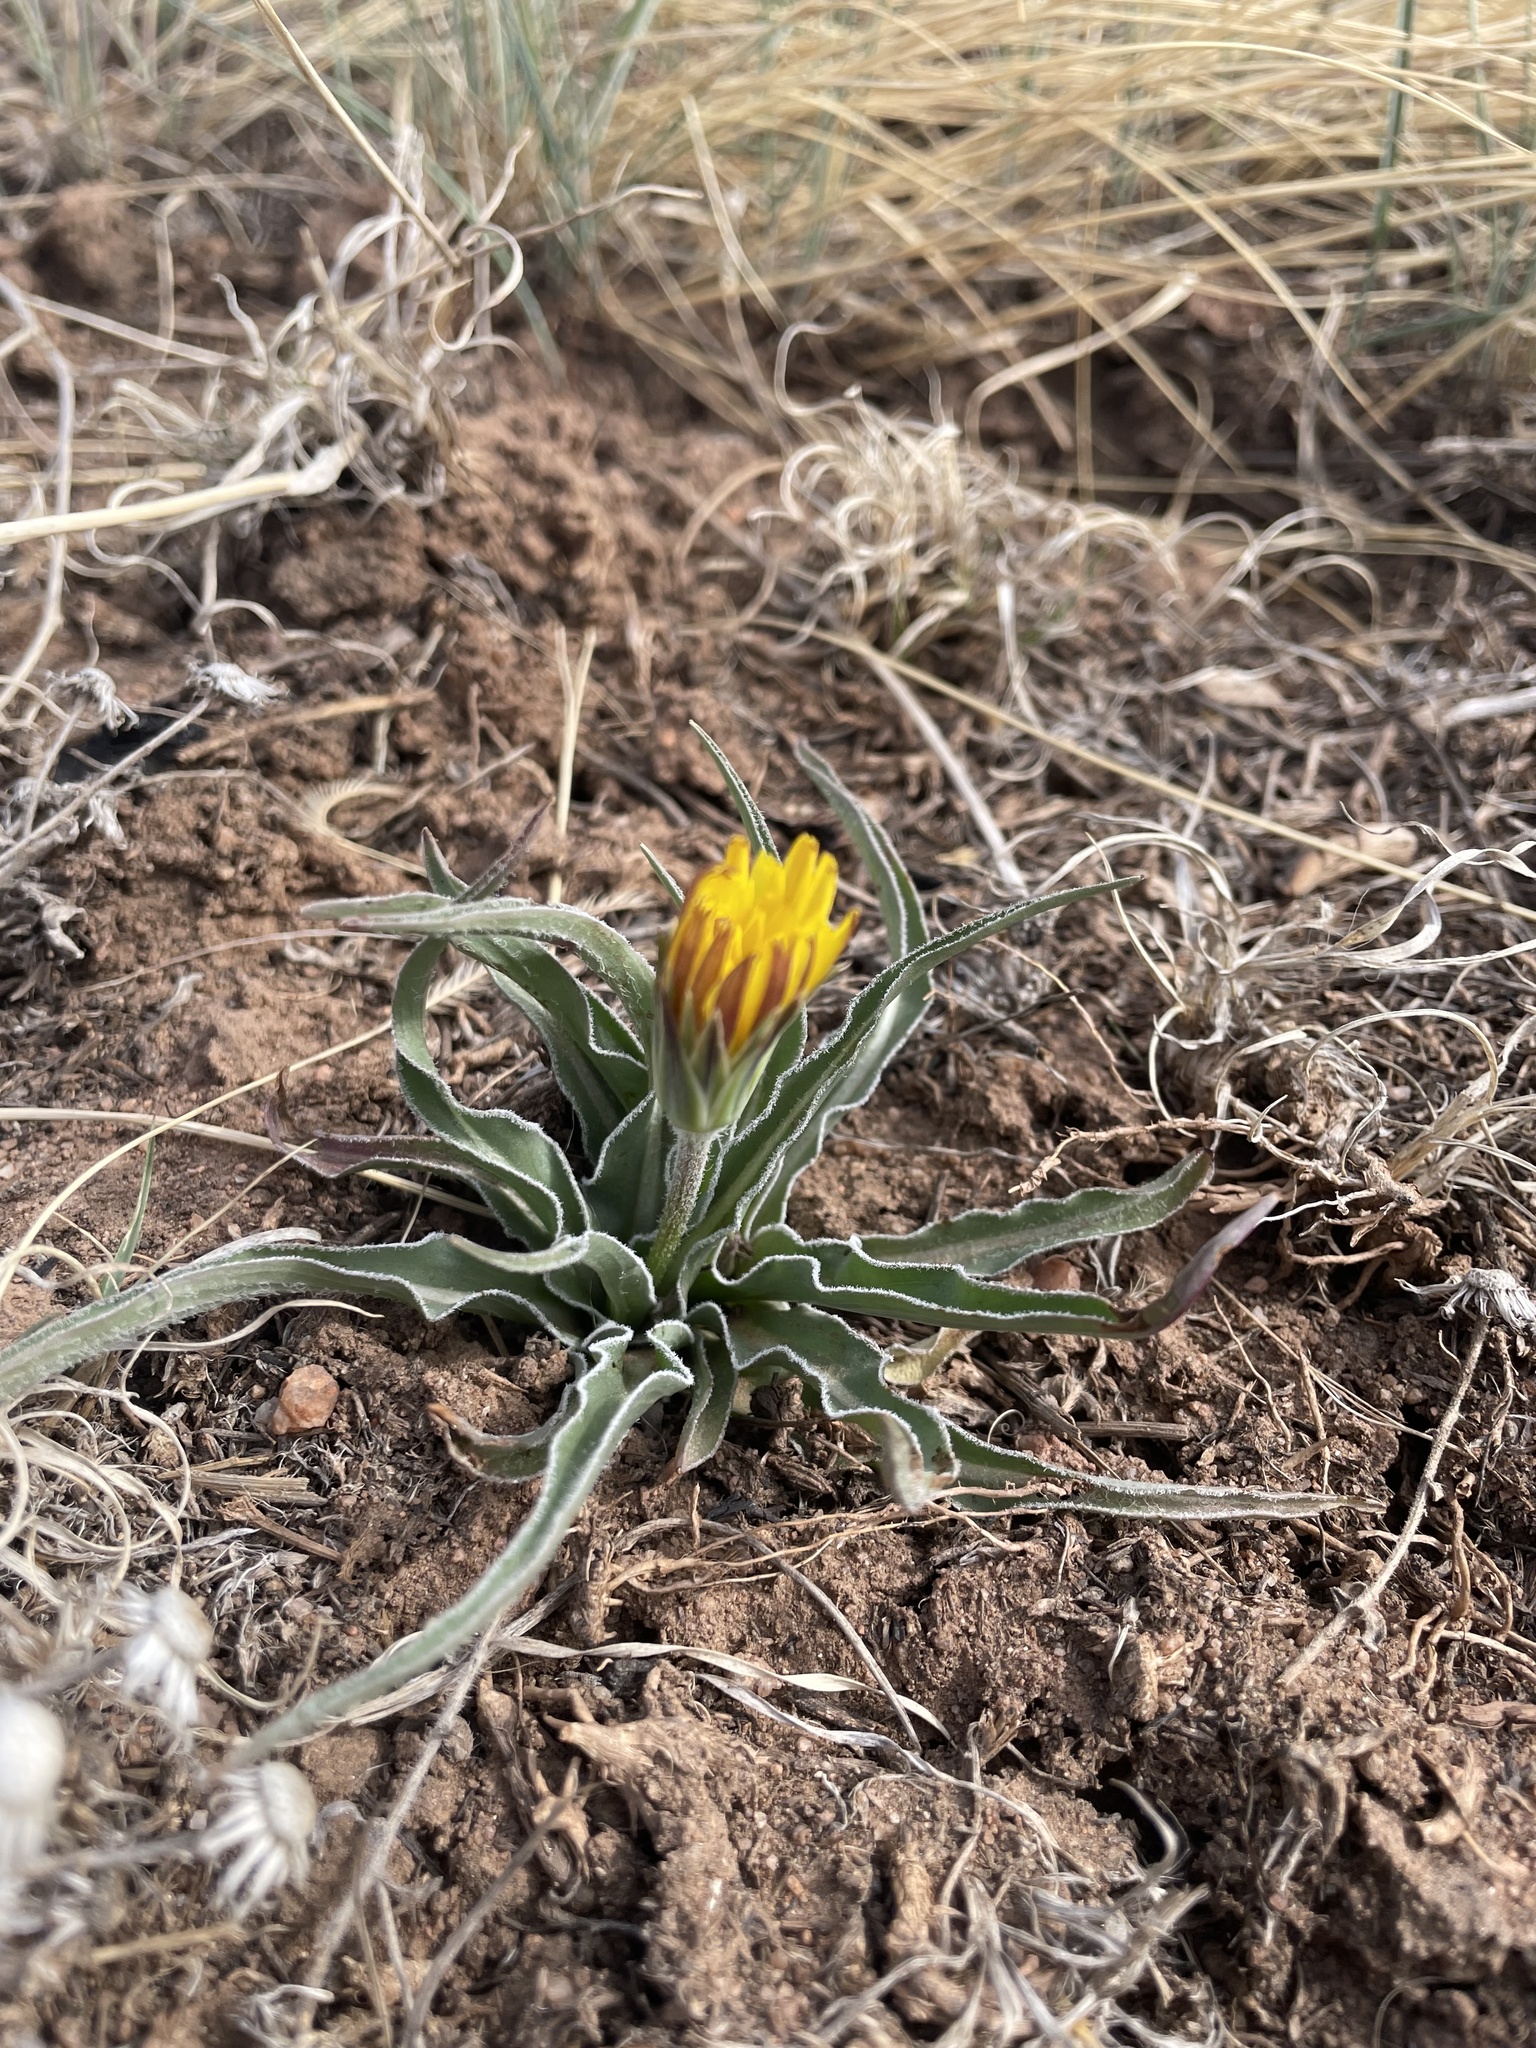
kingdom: Plantae
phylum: Tracheophyta
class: Magnoliopsida
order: Asterales
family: Asteraceae
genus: Microseris
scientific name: Microseris cuspidata
